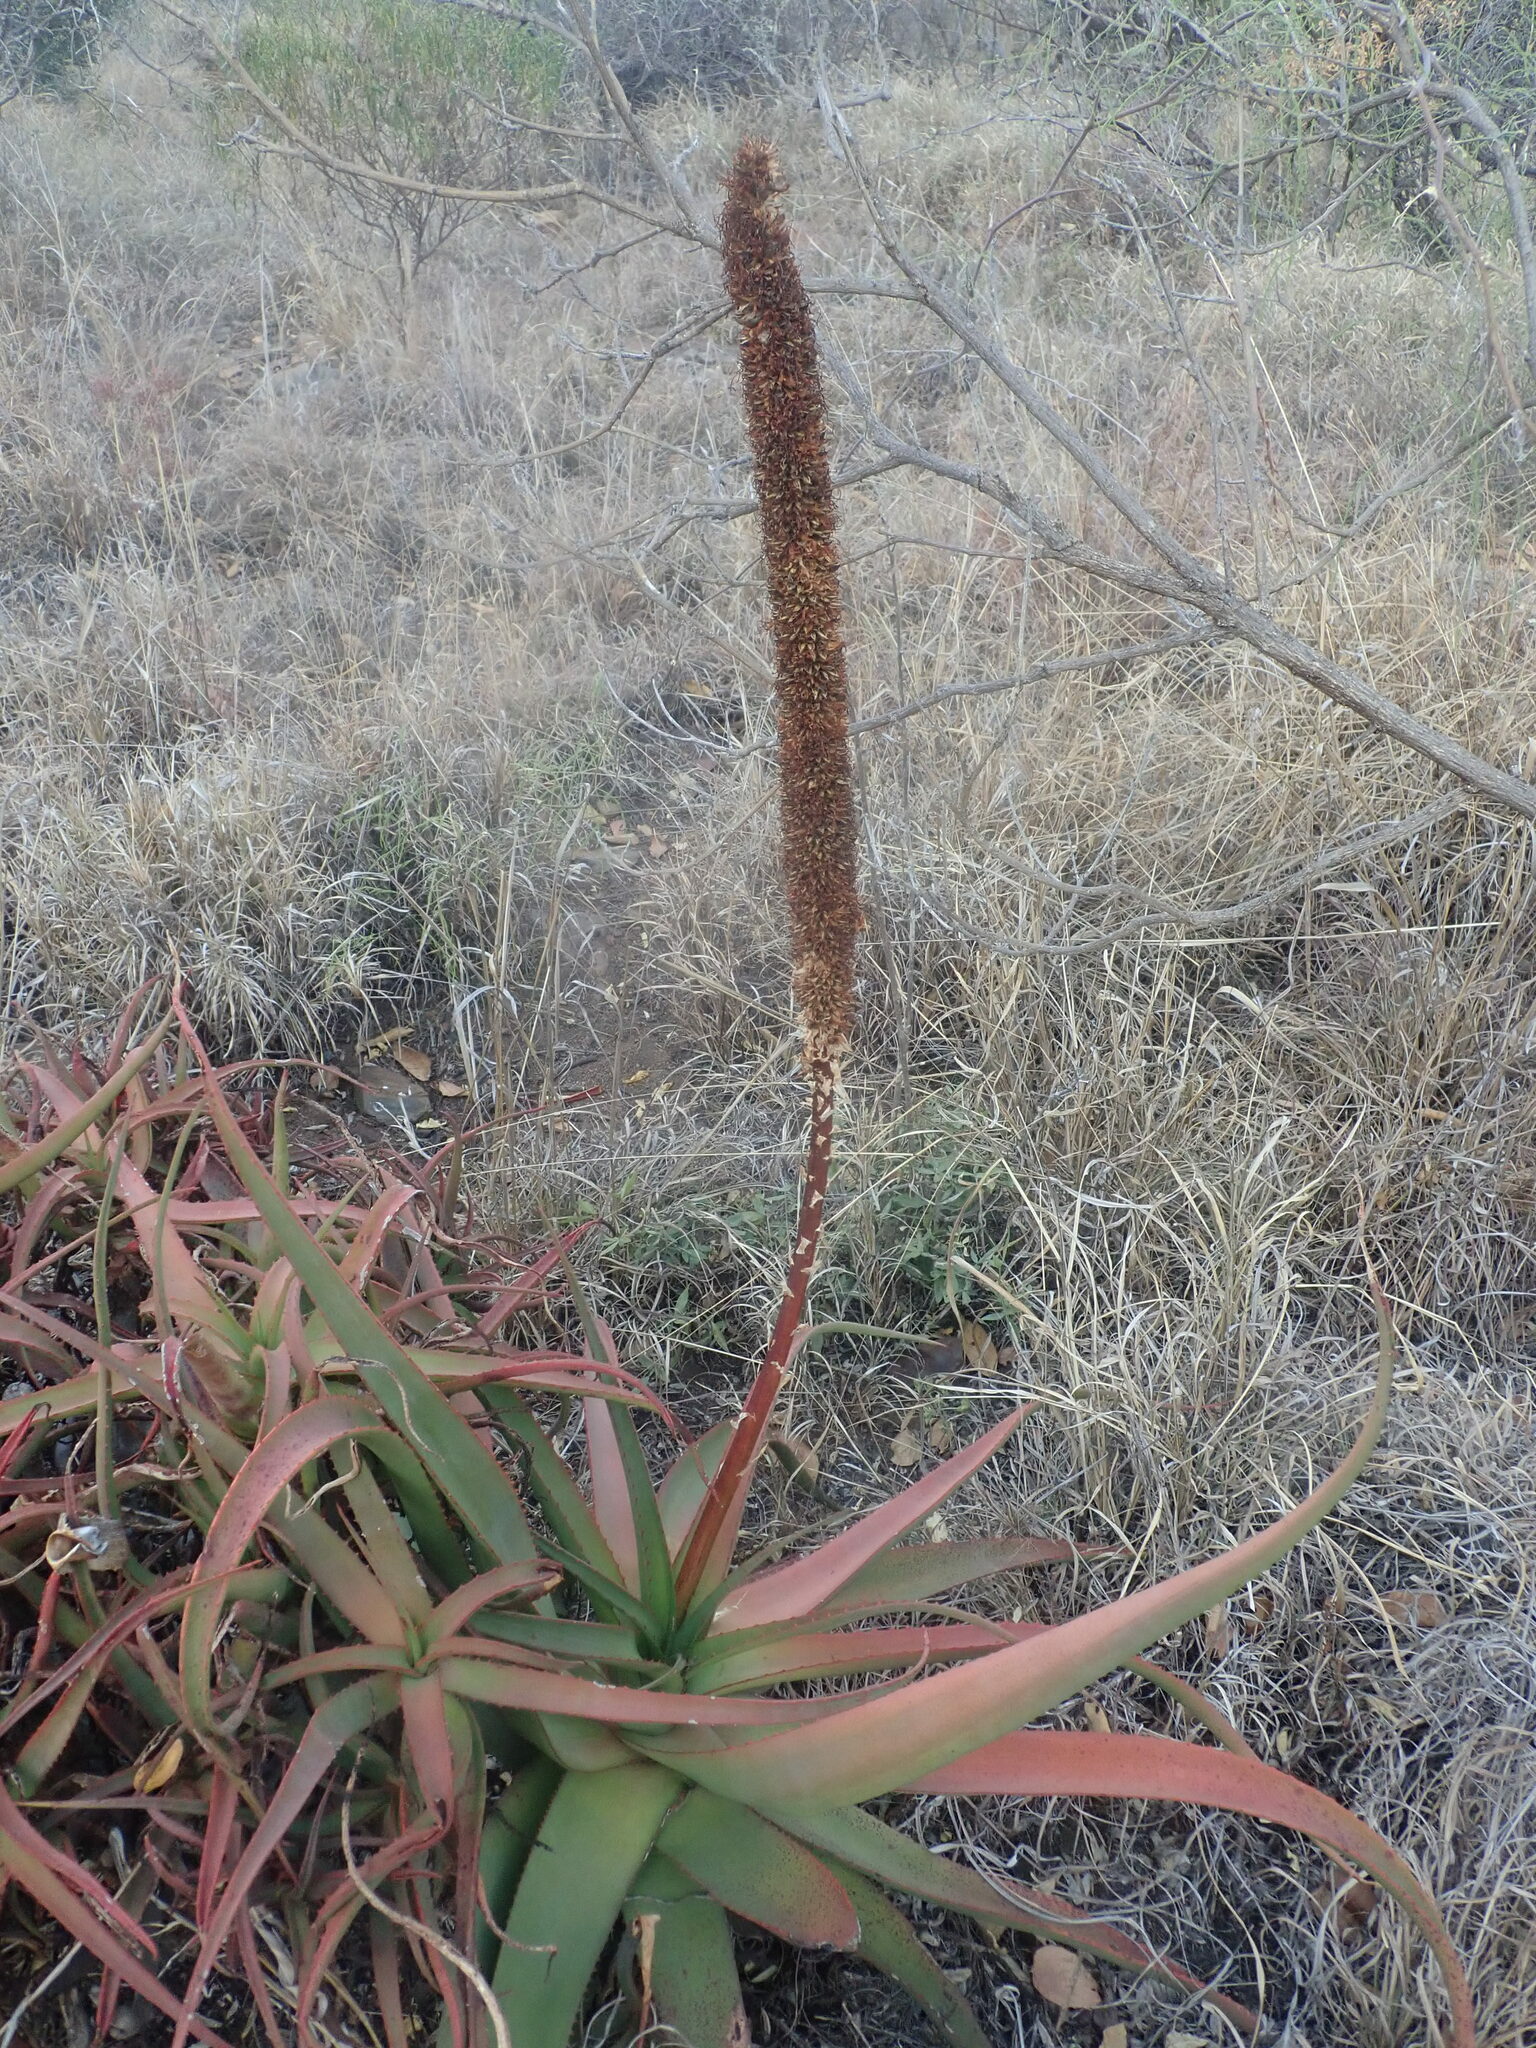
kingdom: Plantae
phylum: Tracheophyta
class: Liliopsida
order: Asparagales
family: Asphodelaceae
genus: Aloe
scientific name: Aloe spicata
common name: Gazaland aloe
